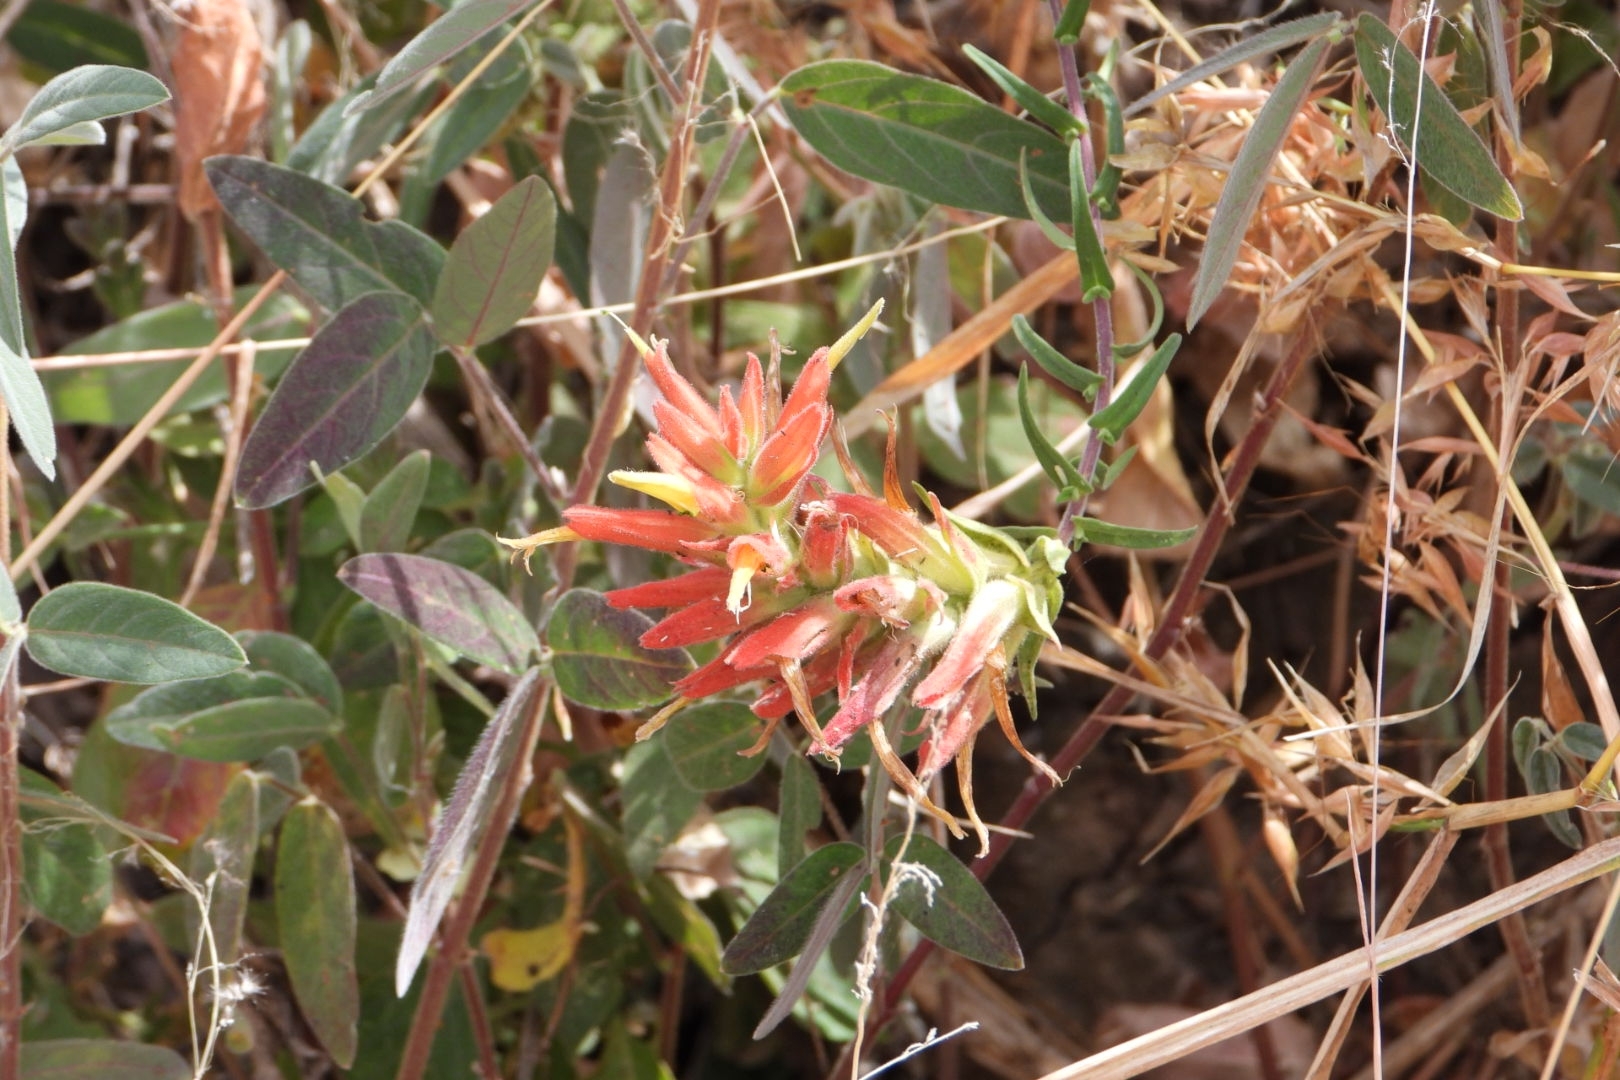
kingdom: Plantae
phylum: Tracheophyta
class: Magnoliopsida
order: Lamiales
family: Orobanchaceae
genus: Castilleja
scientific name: Castilleja tenuiflora
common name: Santa catalina indian paintbrush
